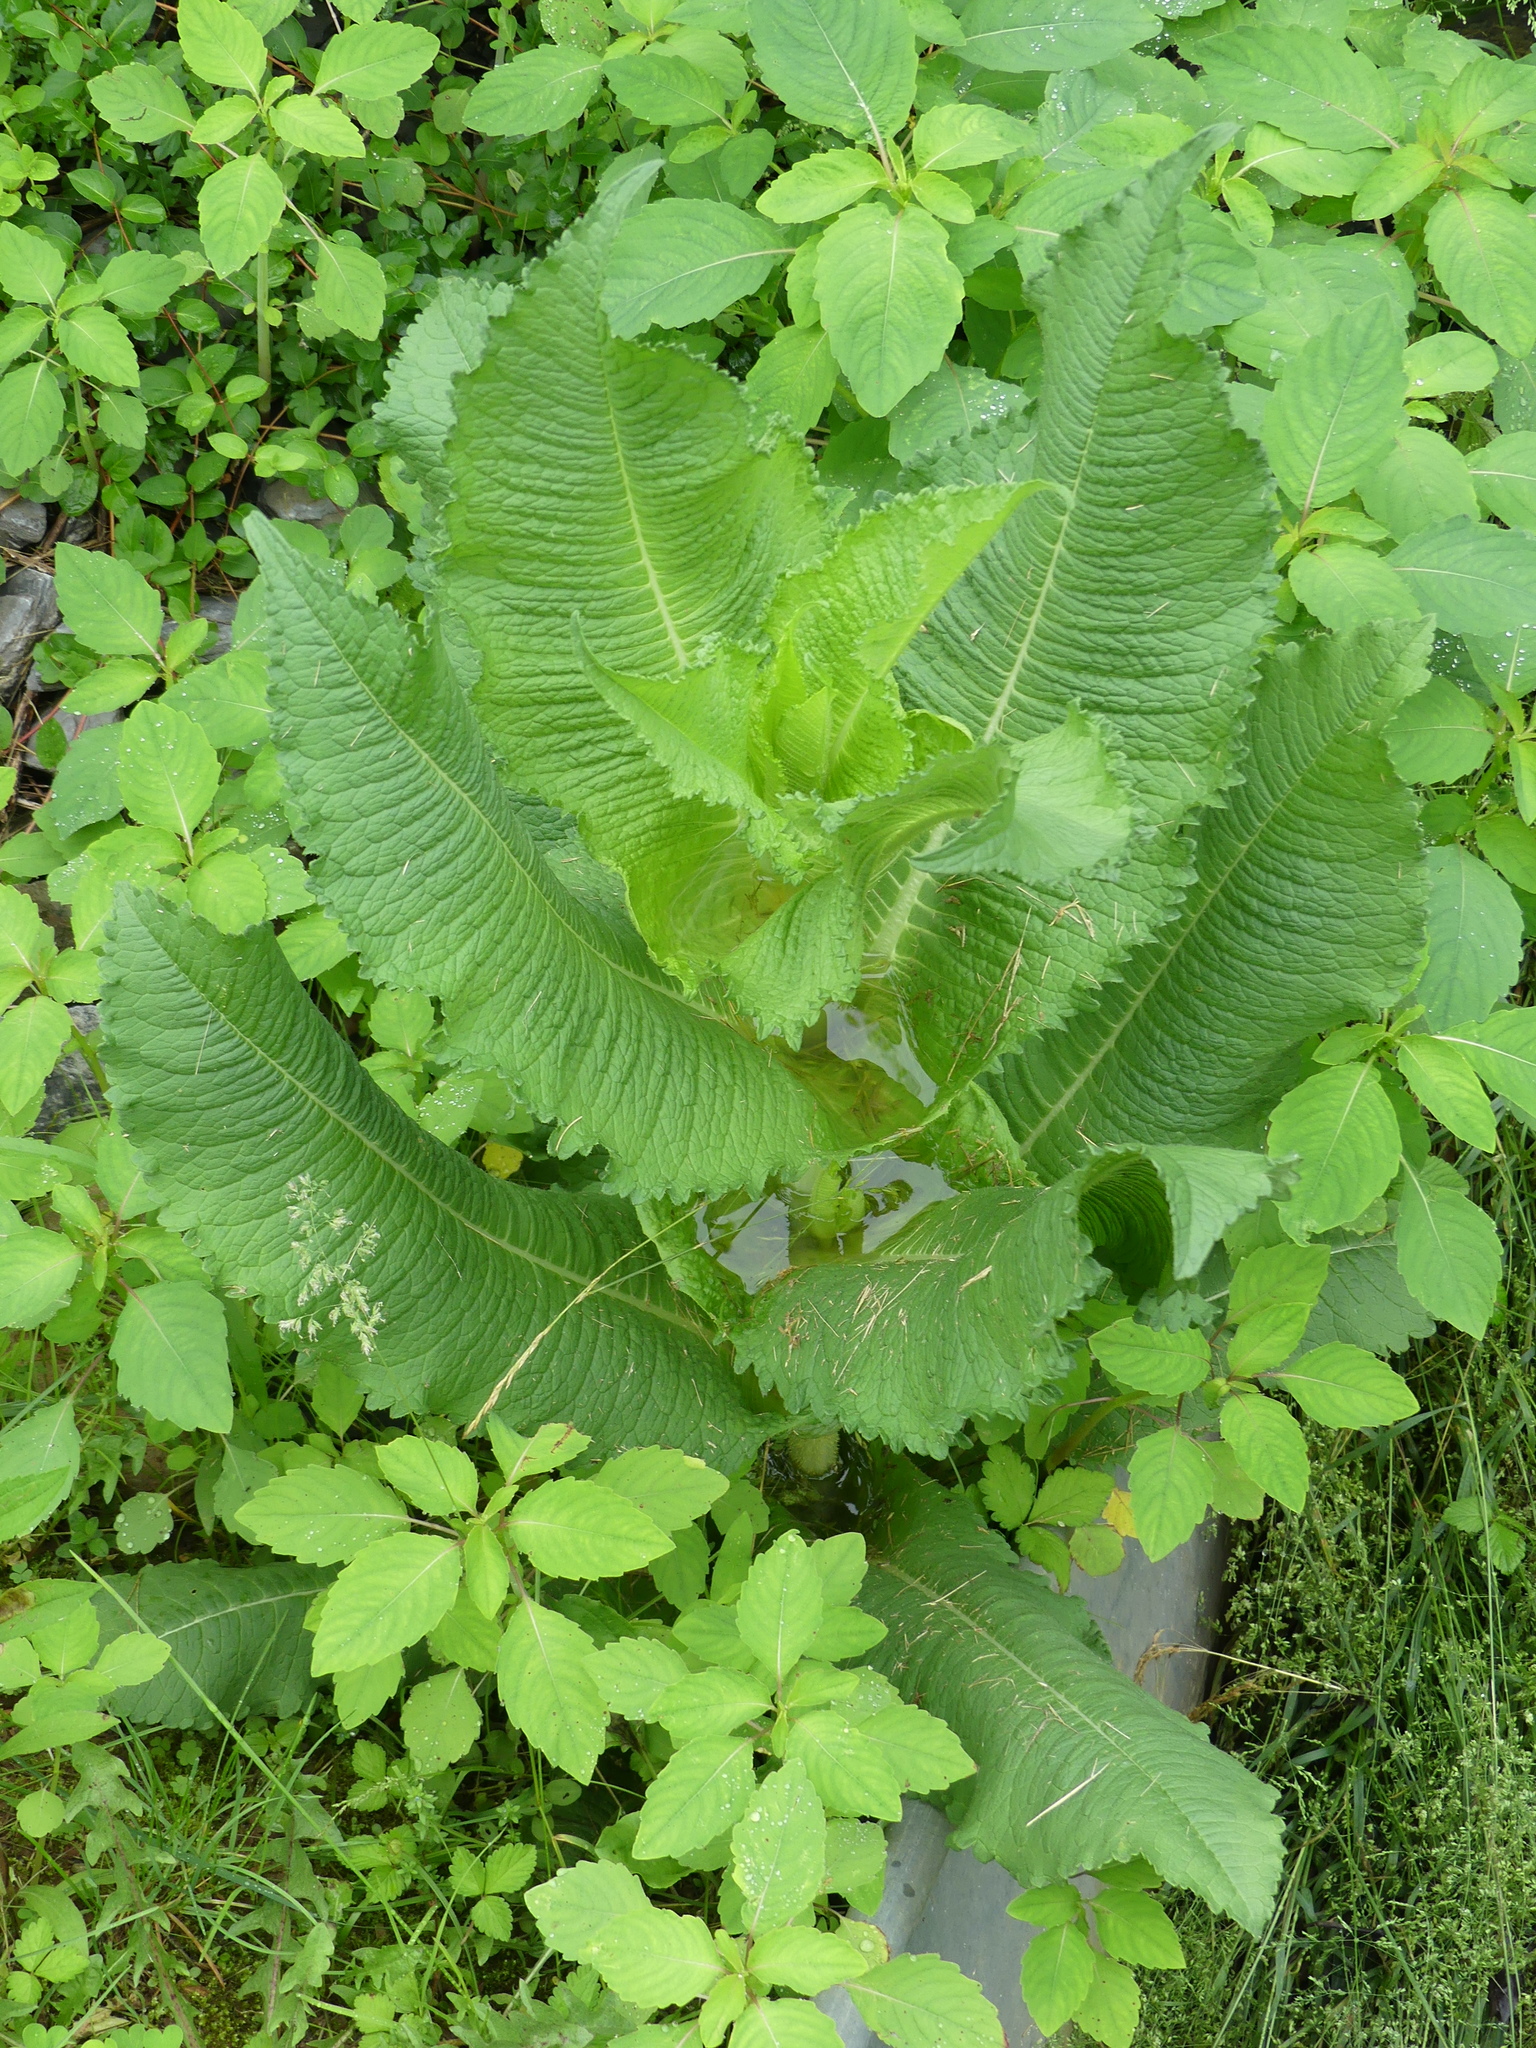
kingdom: Plantae
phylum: Tracheophyta
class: Magnoliopsida
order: Dipsacales
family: Caprifoliaceae
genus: Dipsacus
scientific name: Dipsacus fullonum
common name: Teasel
